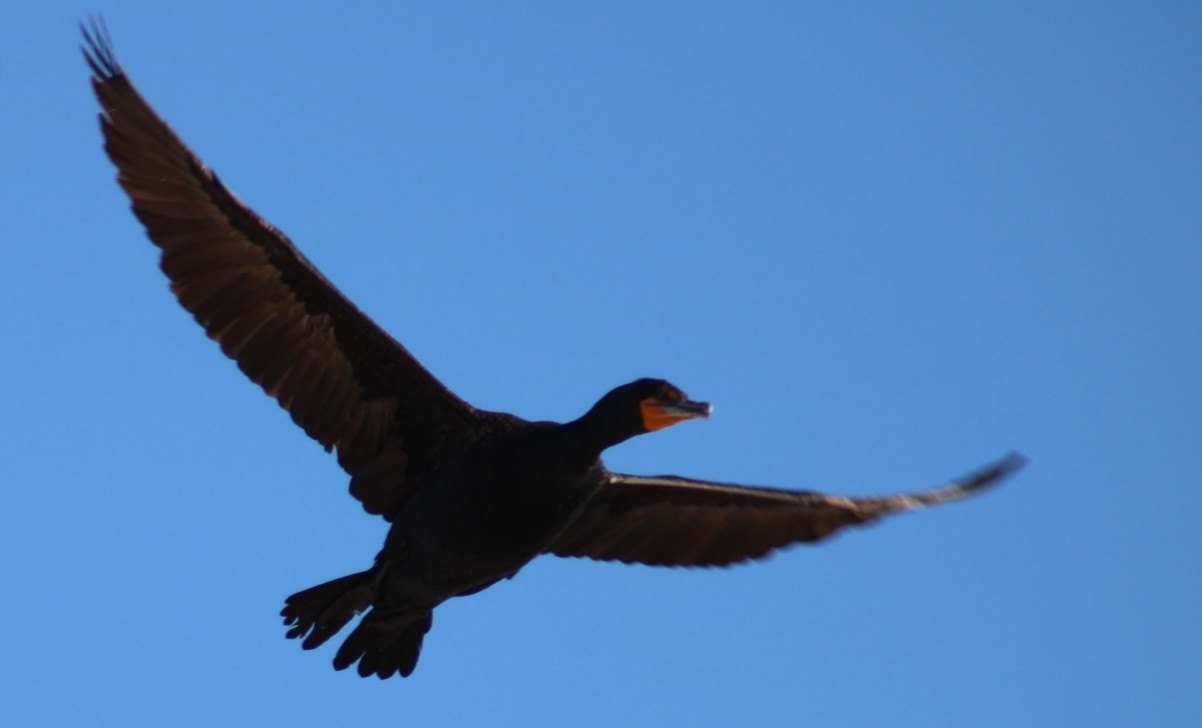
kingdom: Animalia
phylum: Chordata
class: Aves
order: Suliformes
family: Phalacrocoracidae
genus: Phalacrocorax
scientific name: Phalacrocorax auritus
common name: Double-crested cormorant
